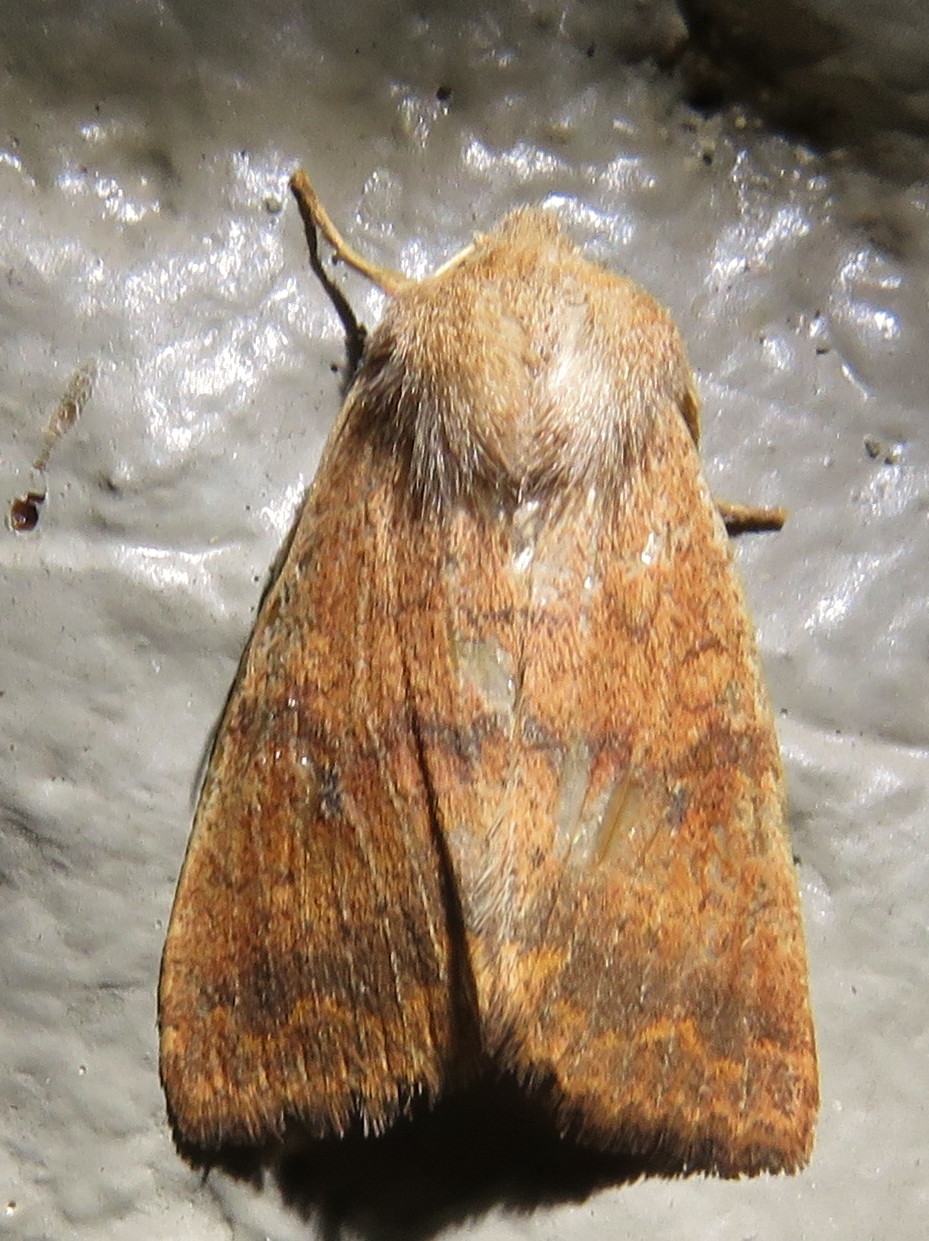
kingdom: Animalia
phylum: Arthropoda
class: Insecta
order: Lepidoptera
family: Noctuidae
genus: Agrochola
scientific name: Agrochola bicolorago
